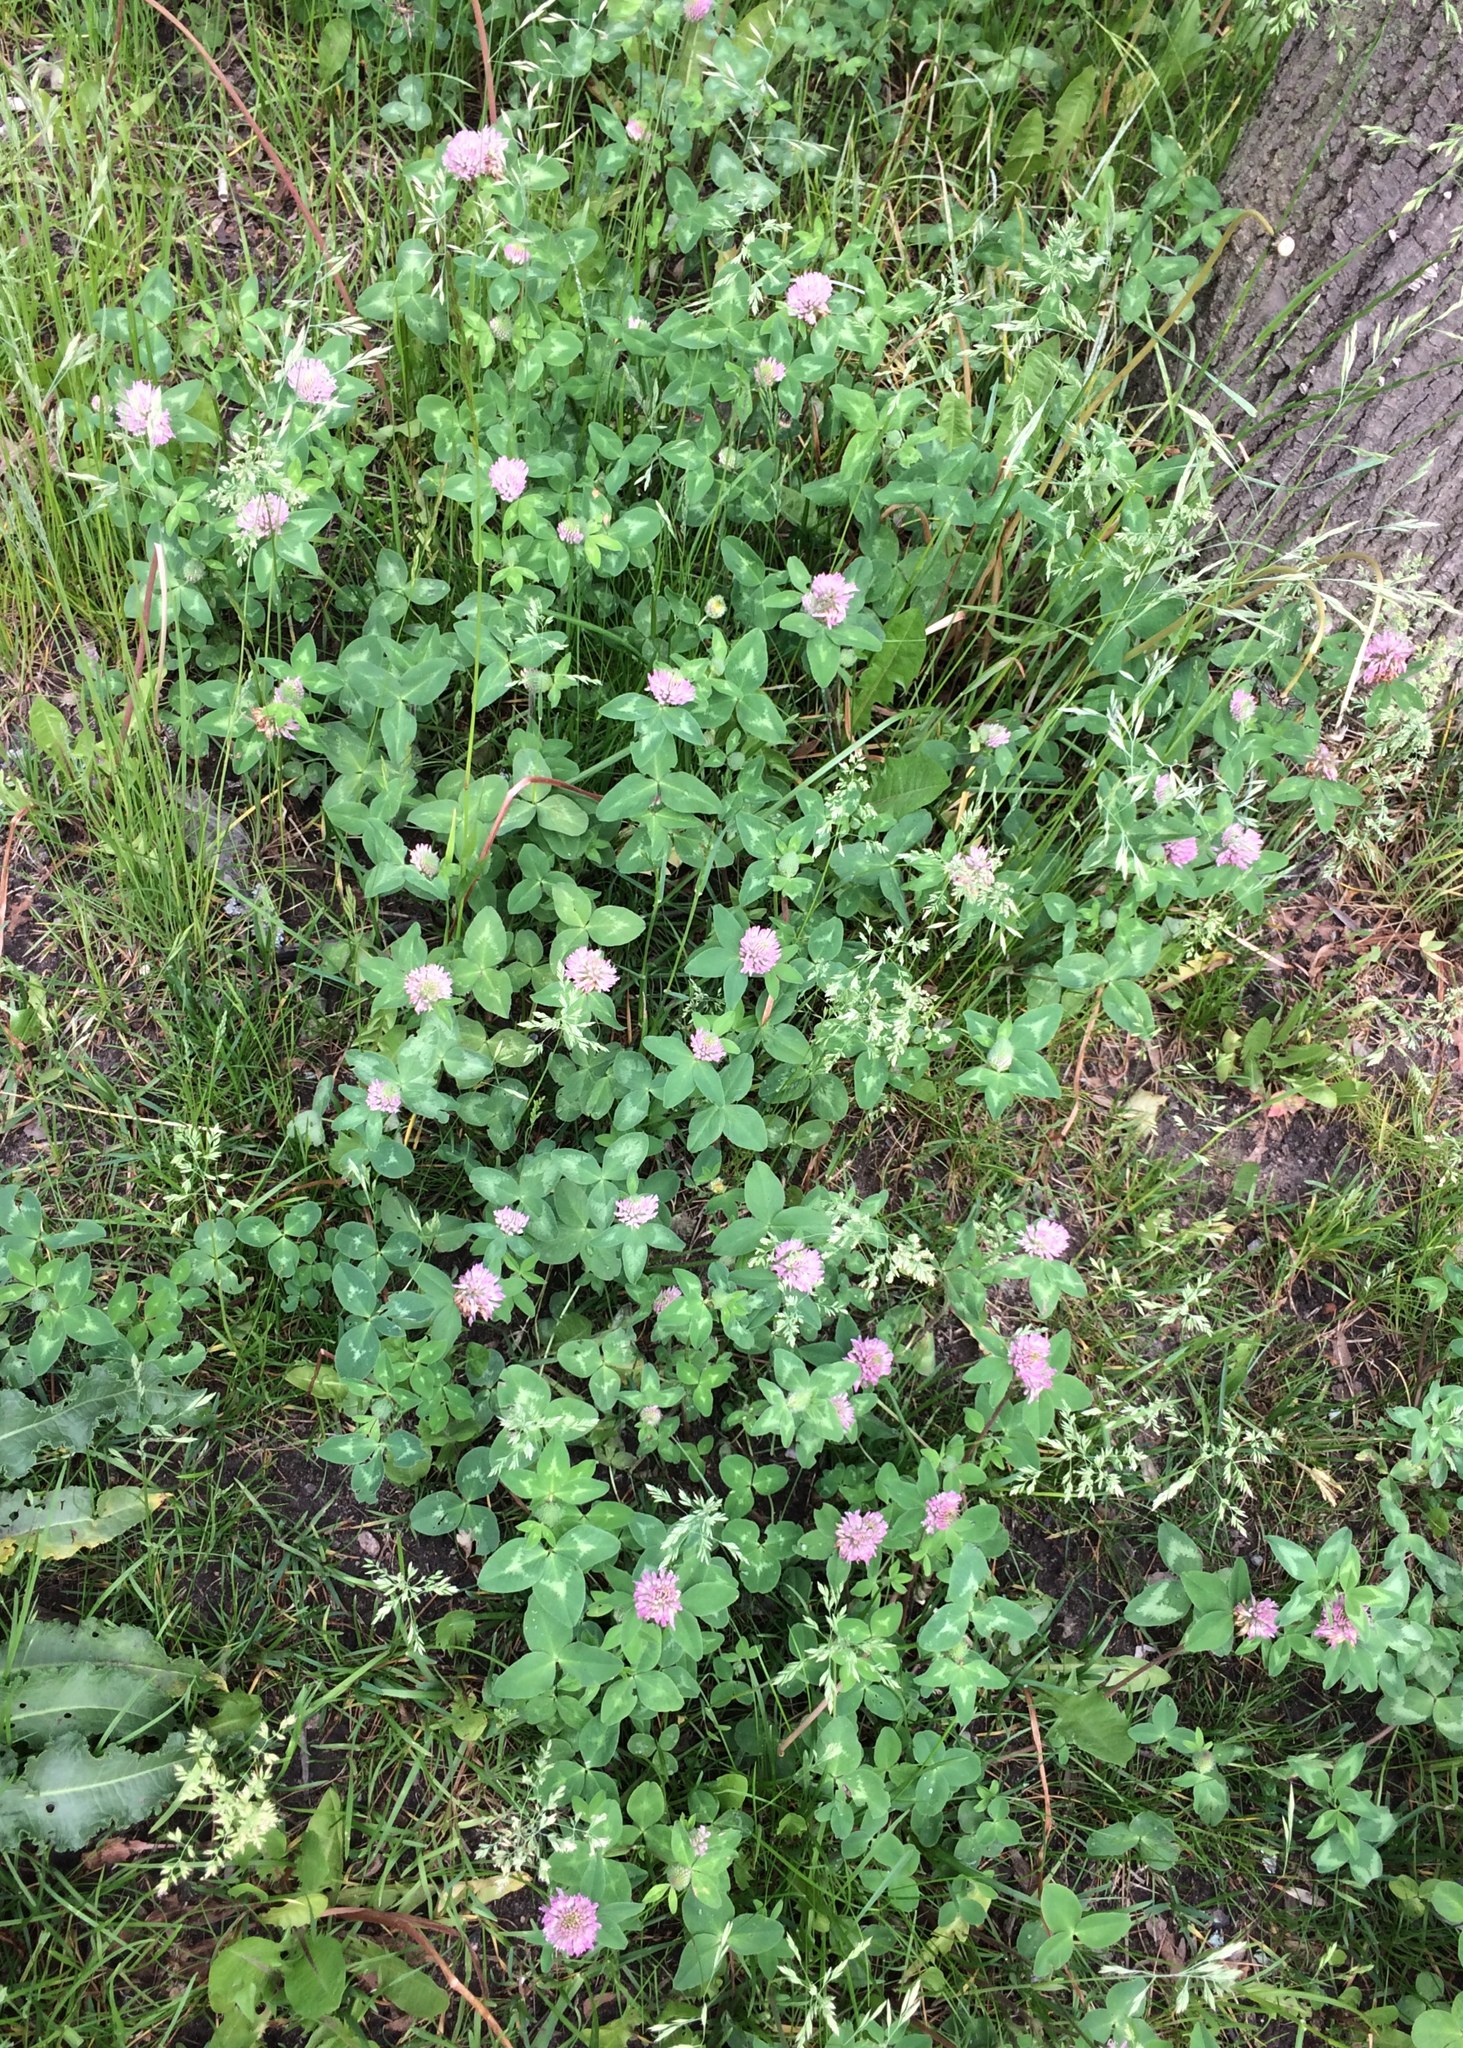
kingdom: Plantae
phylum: Tracheophyta
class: Magnoliopsida
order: Fabales
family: Fabaceae
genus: Trifolium
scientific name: Trifolium pratense
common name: Red clover
